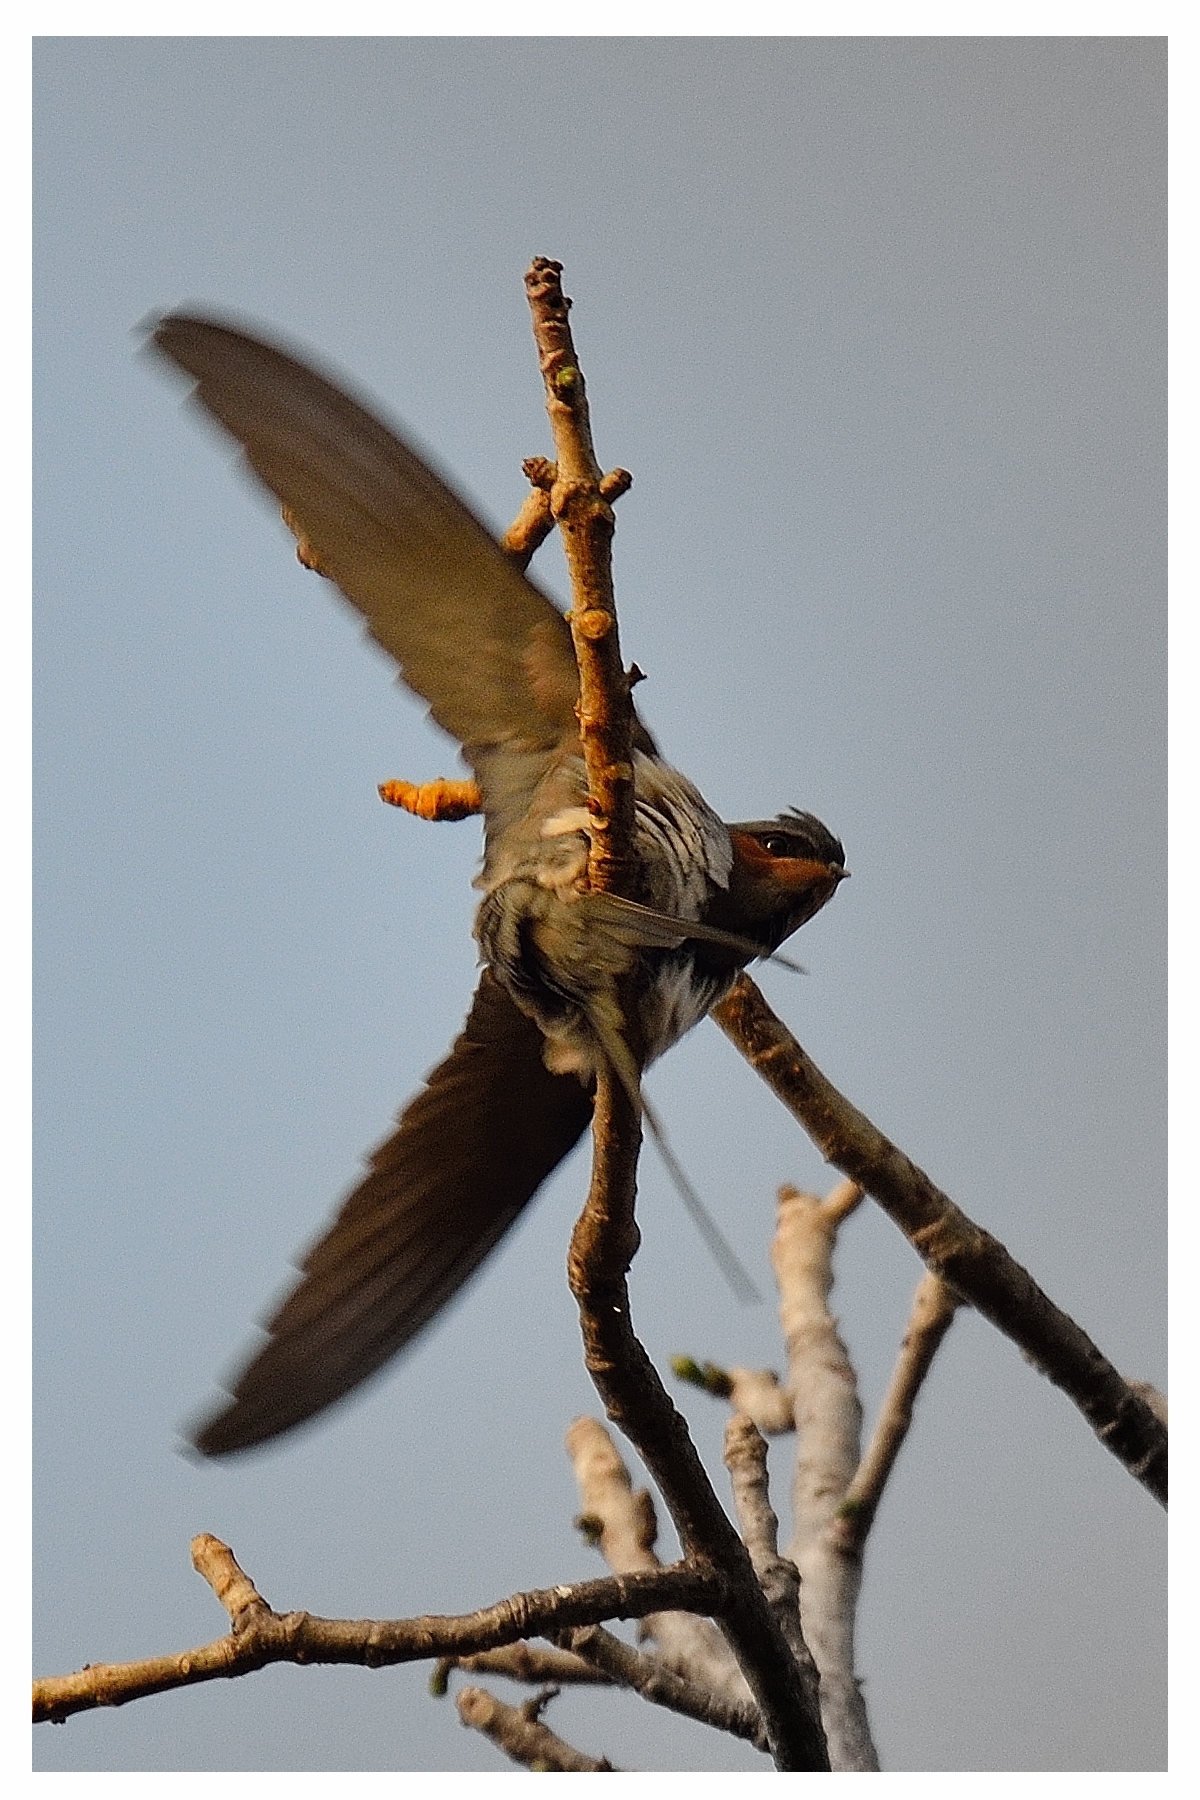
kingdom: Animalia
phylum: Chordata
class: Aves
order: Apodiformes
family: Hemiprocnidae
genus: Hemiprocne
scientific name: Hemiprocne coronata
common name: Crested treeswift
